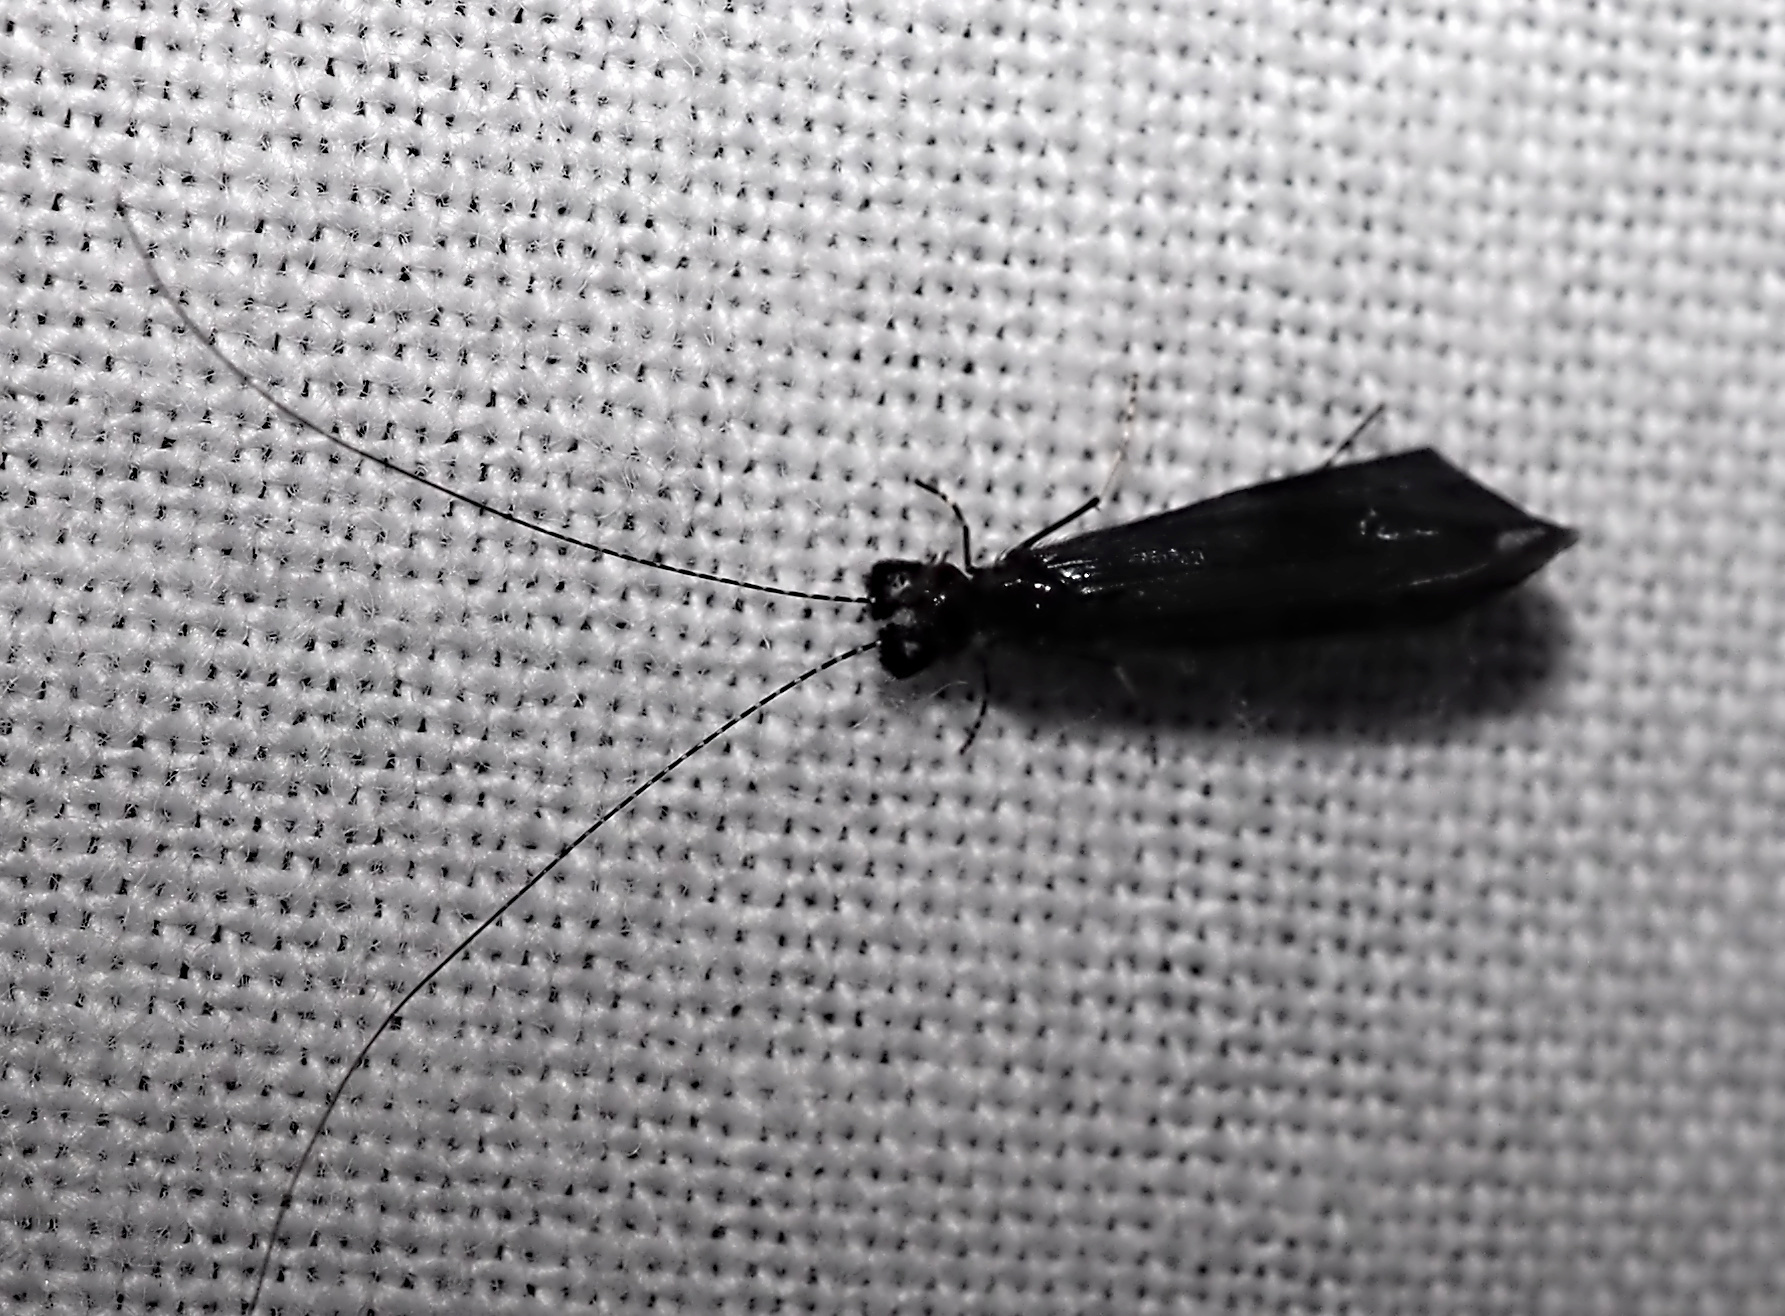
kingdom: Animalia
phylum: Arthropoda
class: Insecta
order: Trichoptera
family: Leptoceridae
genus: Mystacides
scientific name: Mystacides
